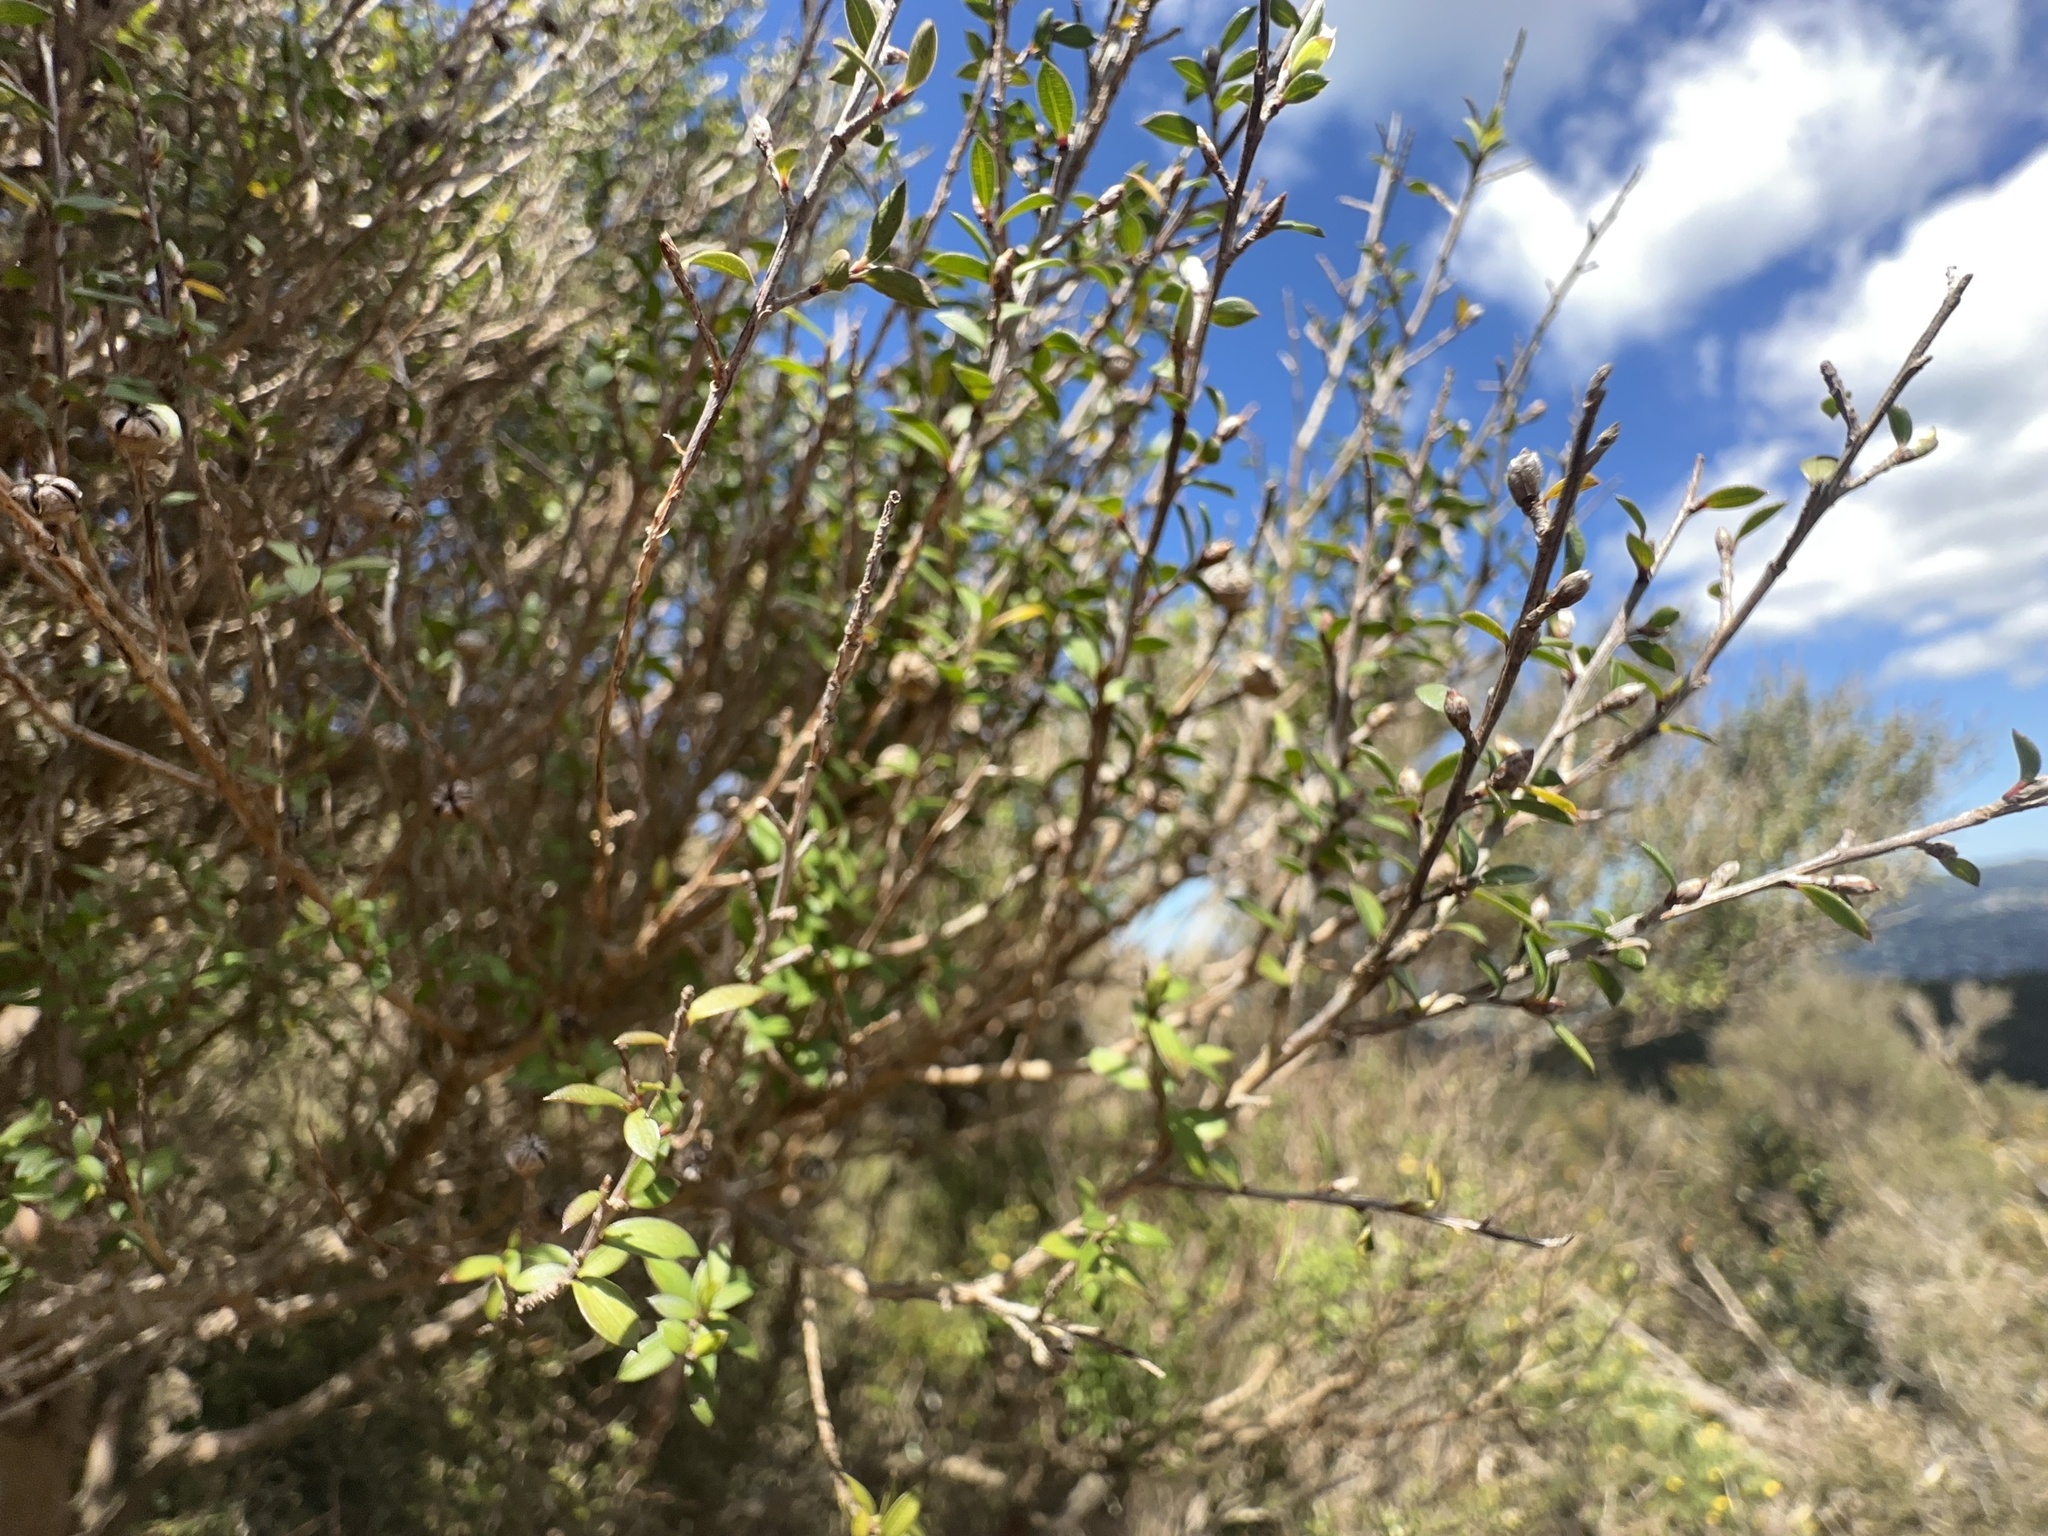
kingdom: Plantae
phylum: Tracheophyta
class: Magnoliopsida
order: Myrtales
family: Myrtaceae
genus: Leptospermum
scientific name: Leptospermum scoparium
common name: Broom tea-tree
